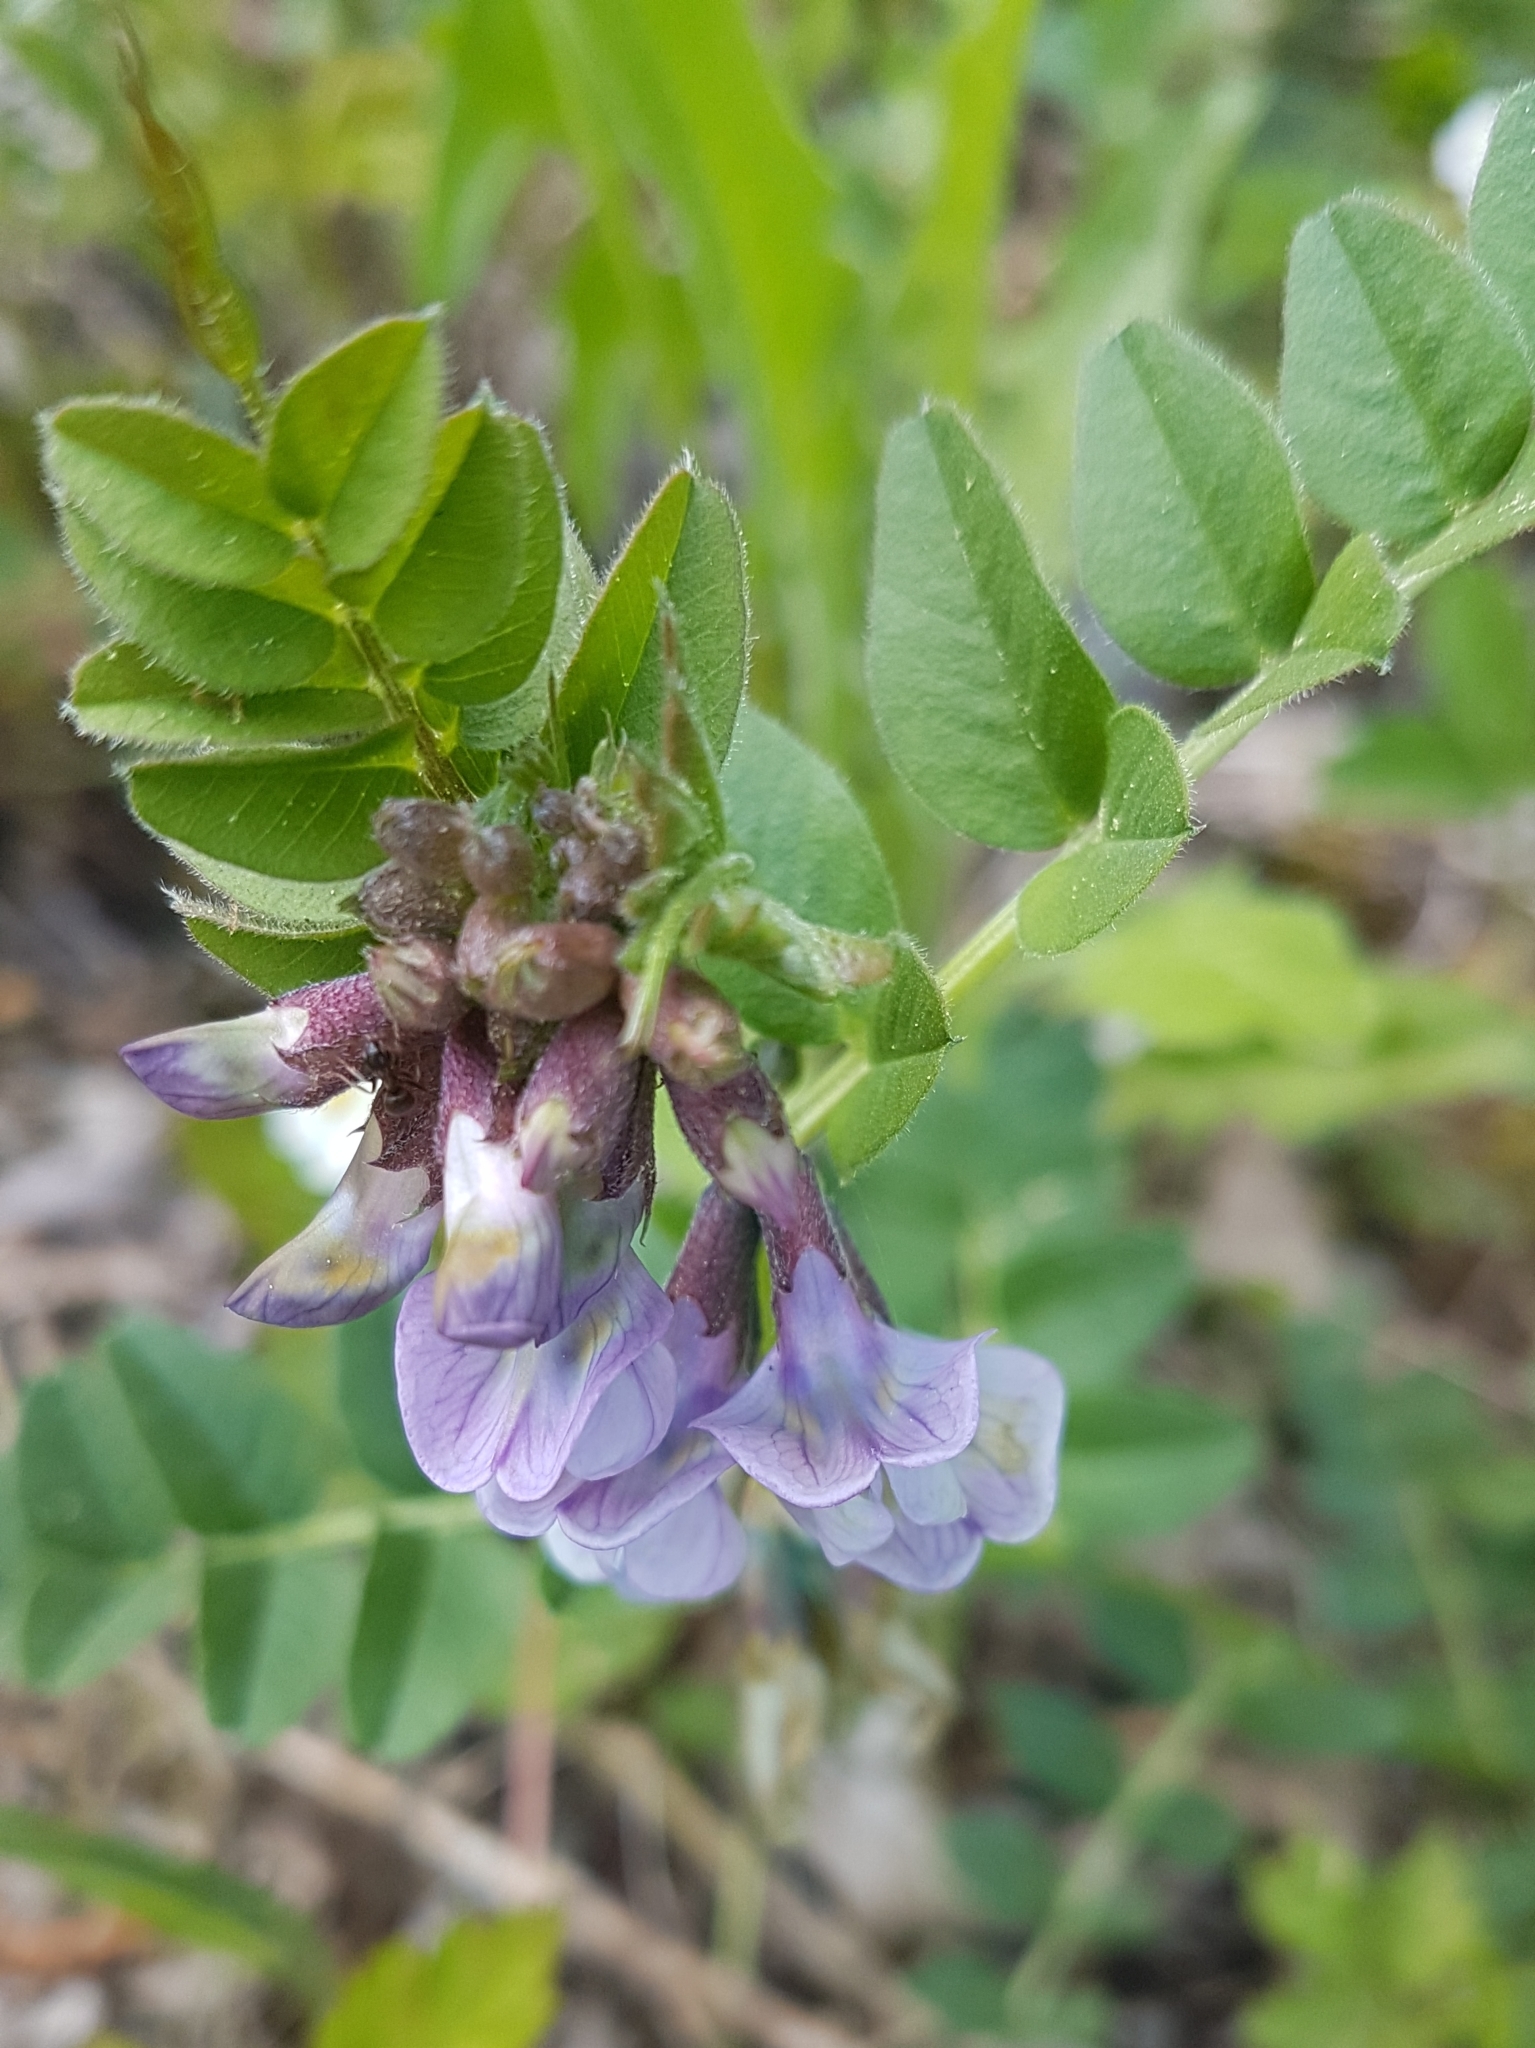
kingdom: Plantae
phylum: Tracheophyta
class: Magnoliopsida
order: Fabales
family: Fabaceae
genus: Vicia
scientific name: Vicia sepium
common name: Bush vetch
